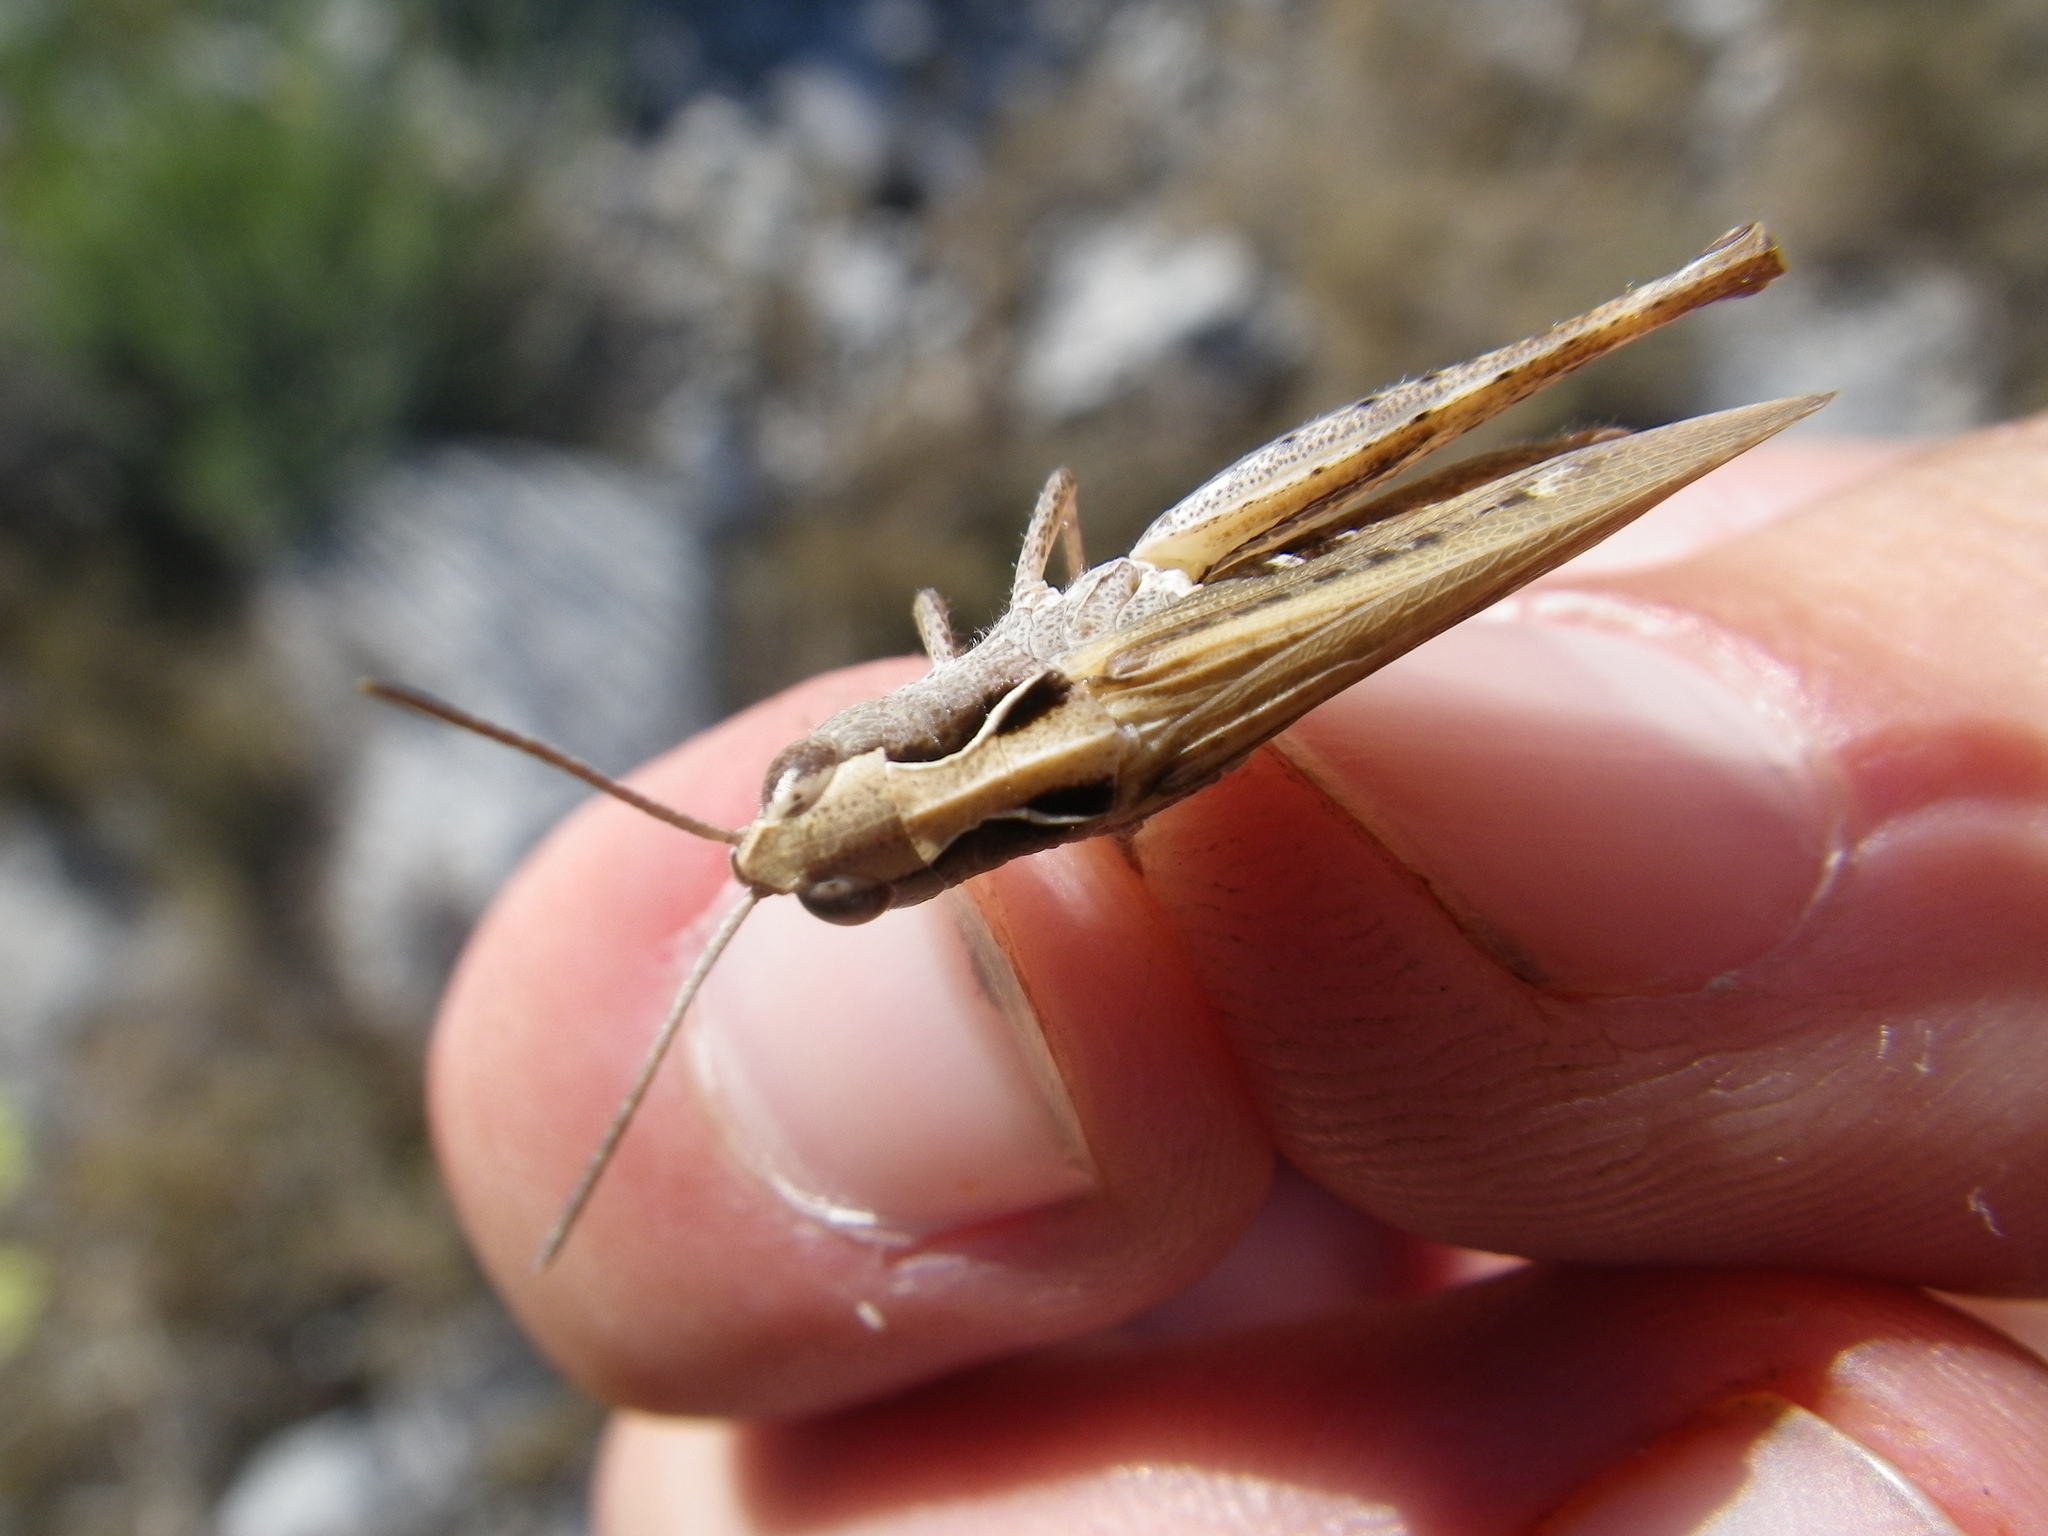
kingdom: Animalia
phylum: Arthropoda
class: Insecta
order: Orthoptera
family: Acrididae
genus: Chorthippus
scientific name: Chorthippus vagans
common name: Heath grasshopper
